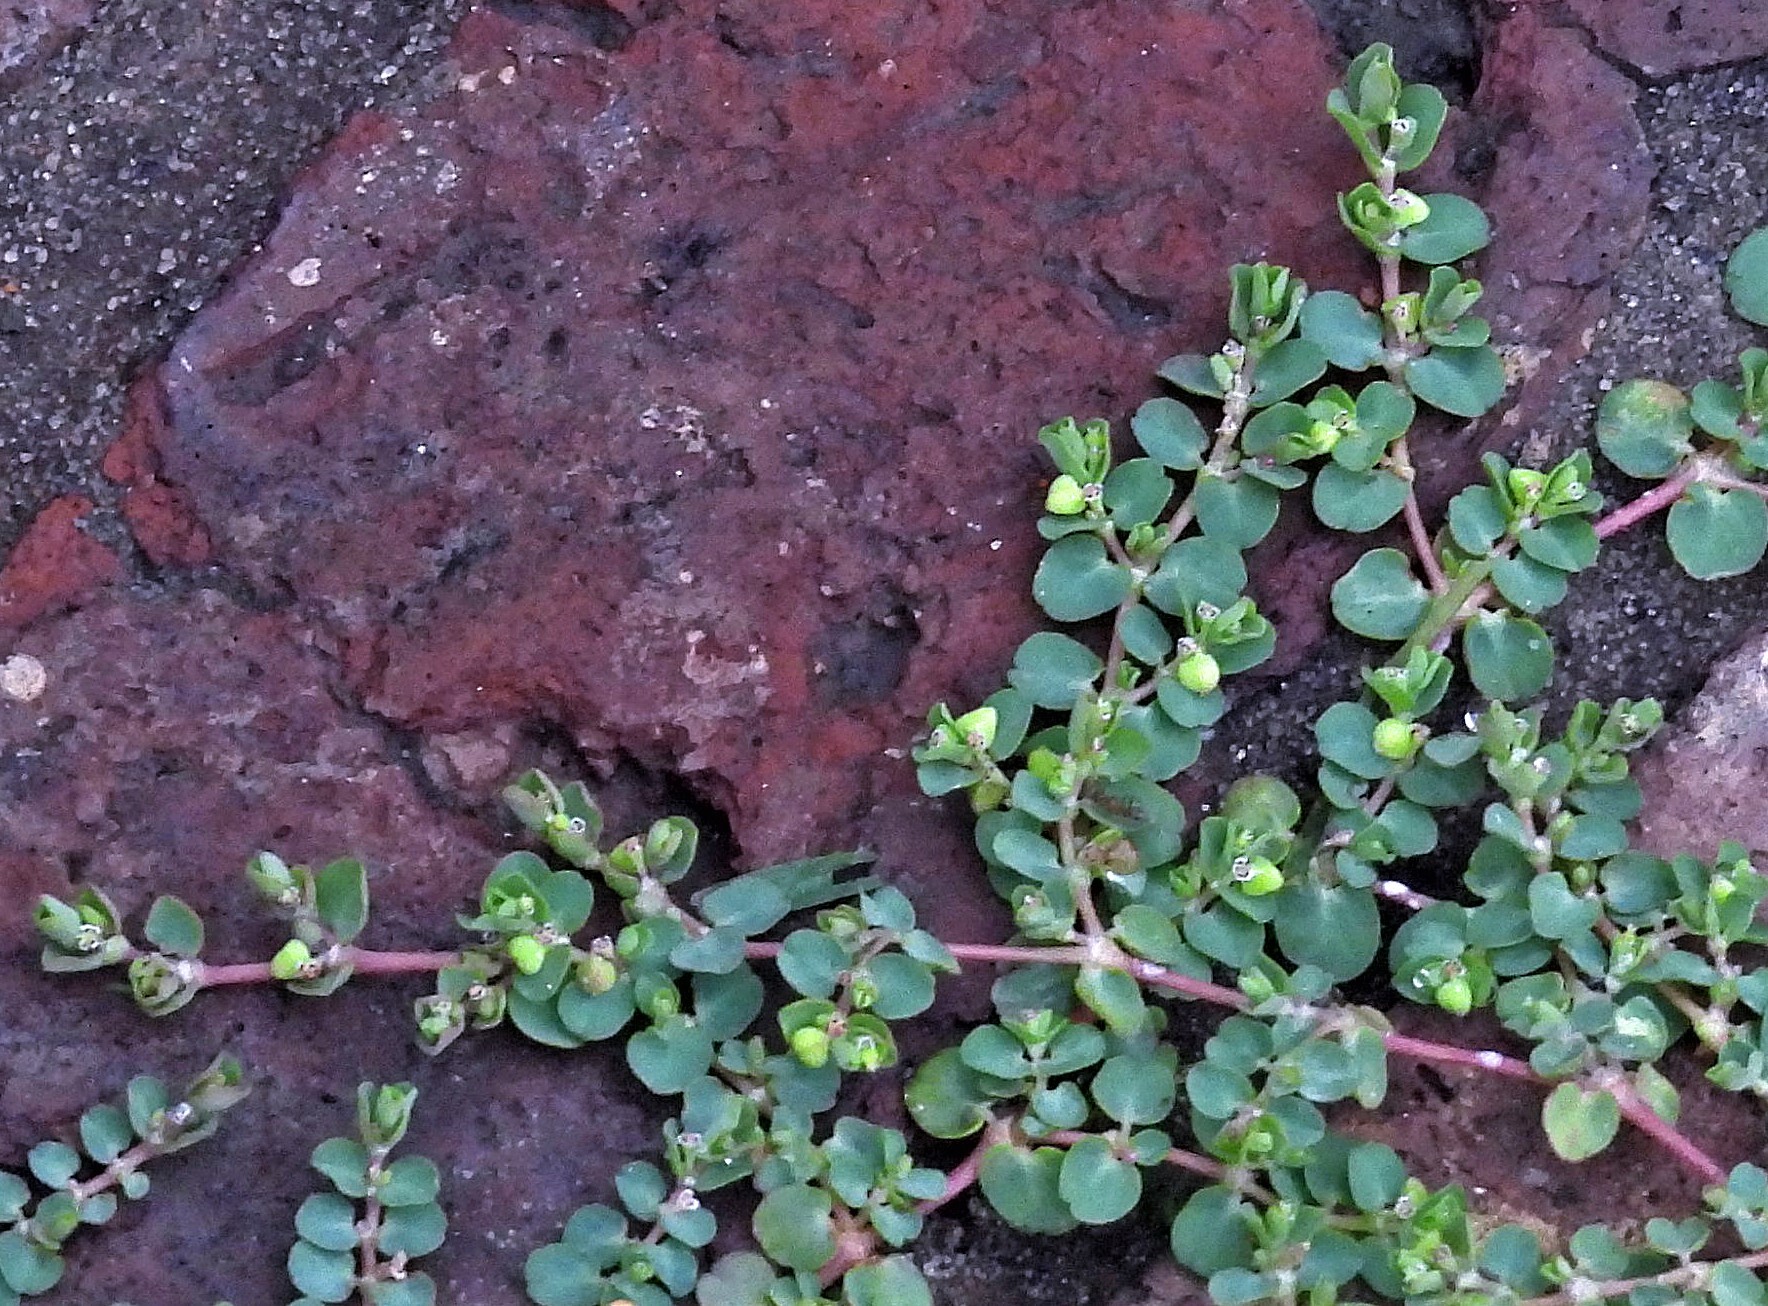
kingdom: Plantae
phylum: Tracheophyta
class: Magnoliopsida
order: Malpighiales
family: Euphorbiaceae
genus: Euphorbia
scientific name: Euphorbia serpens
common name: Matted sandmat
